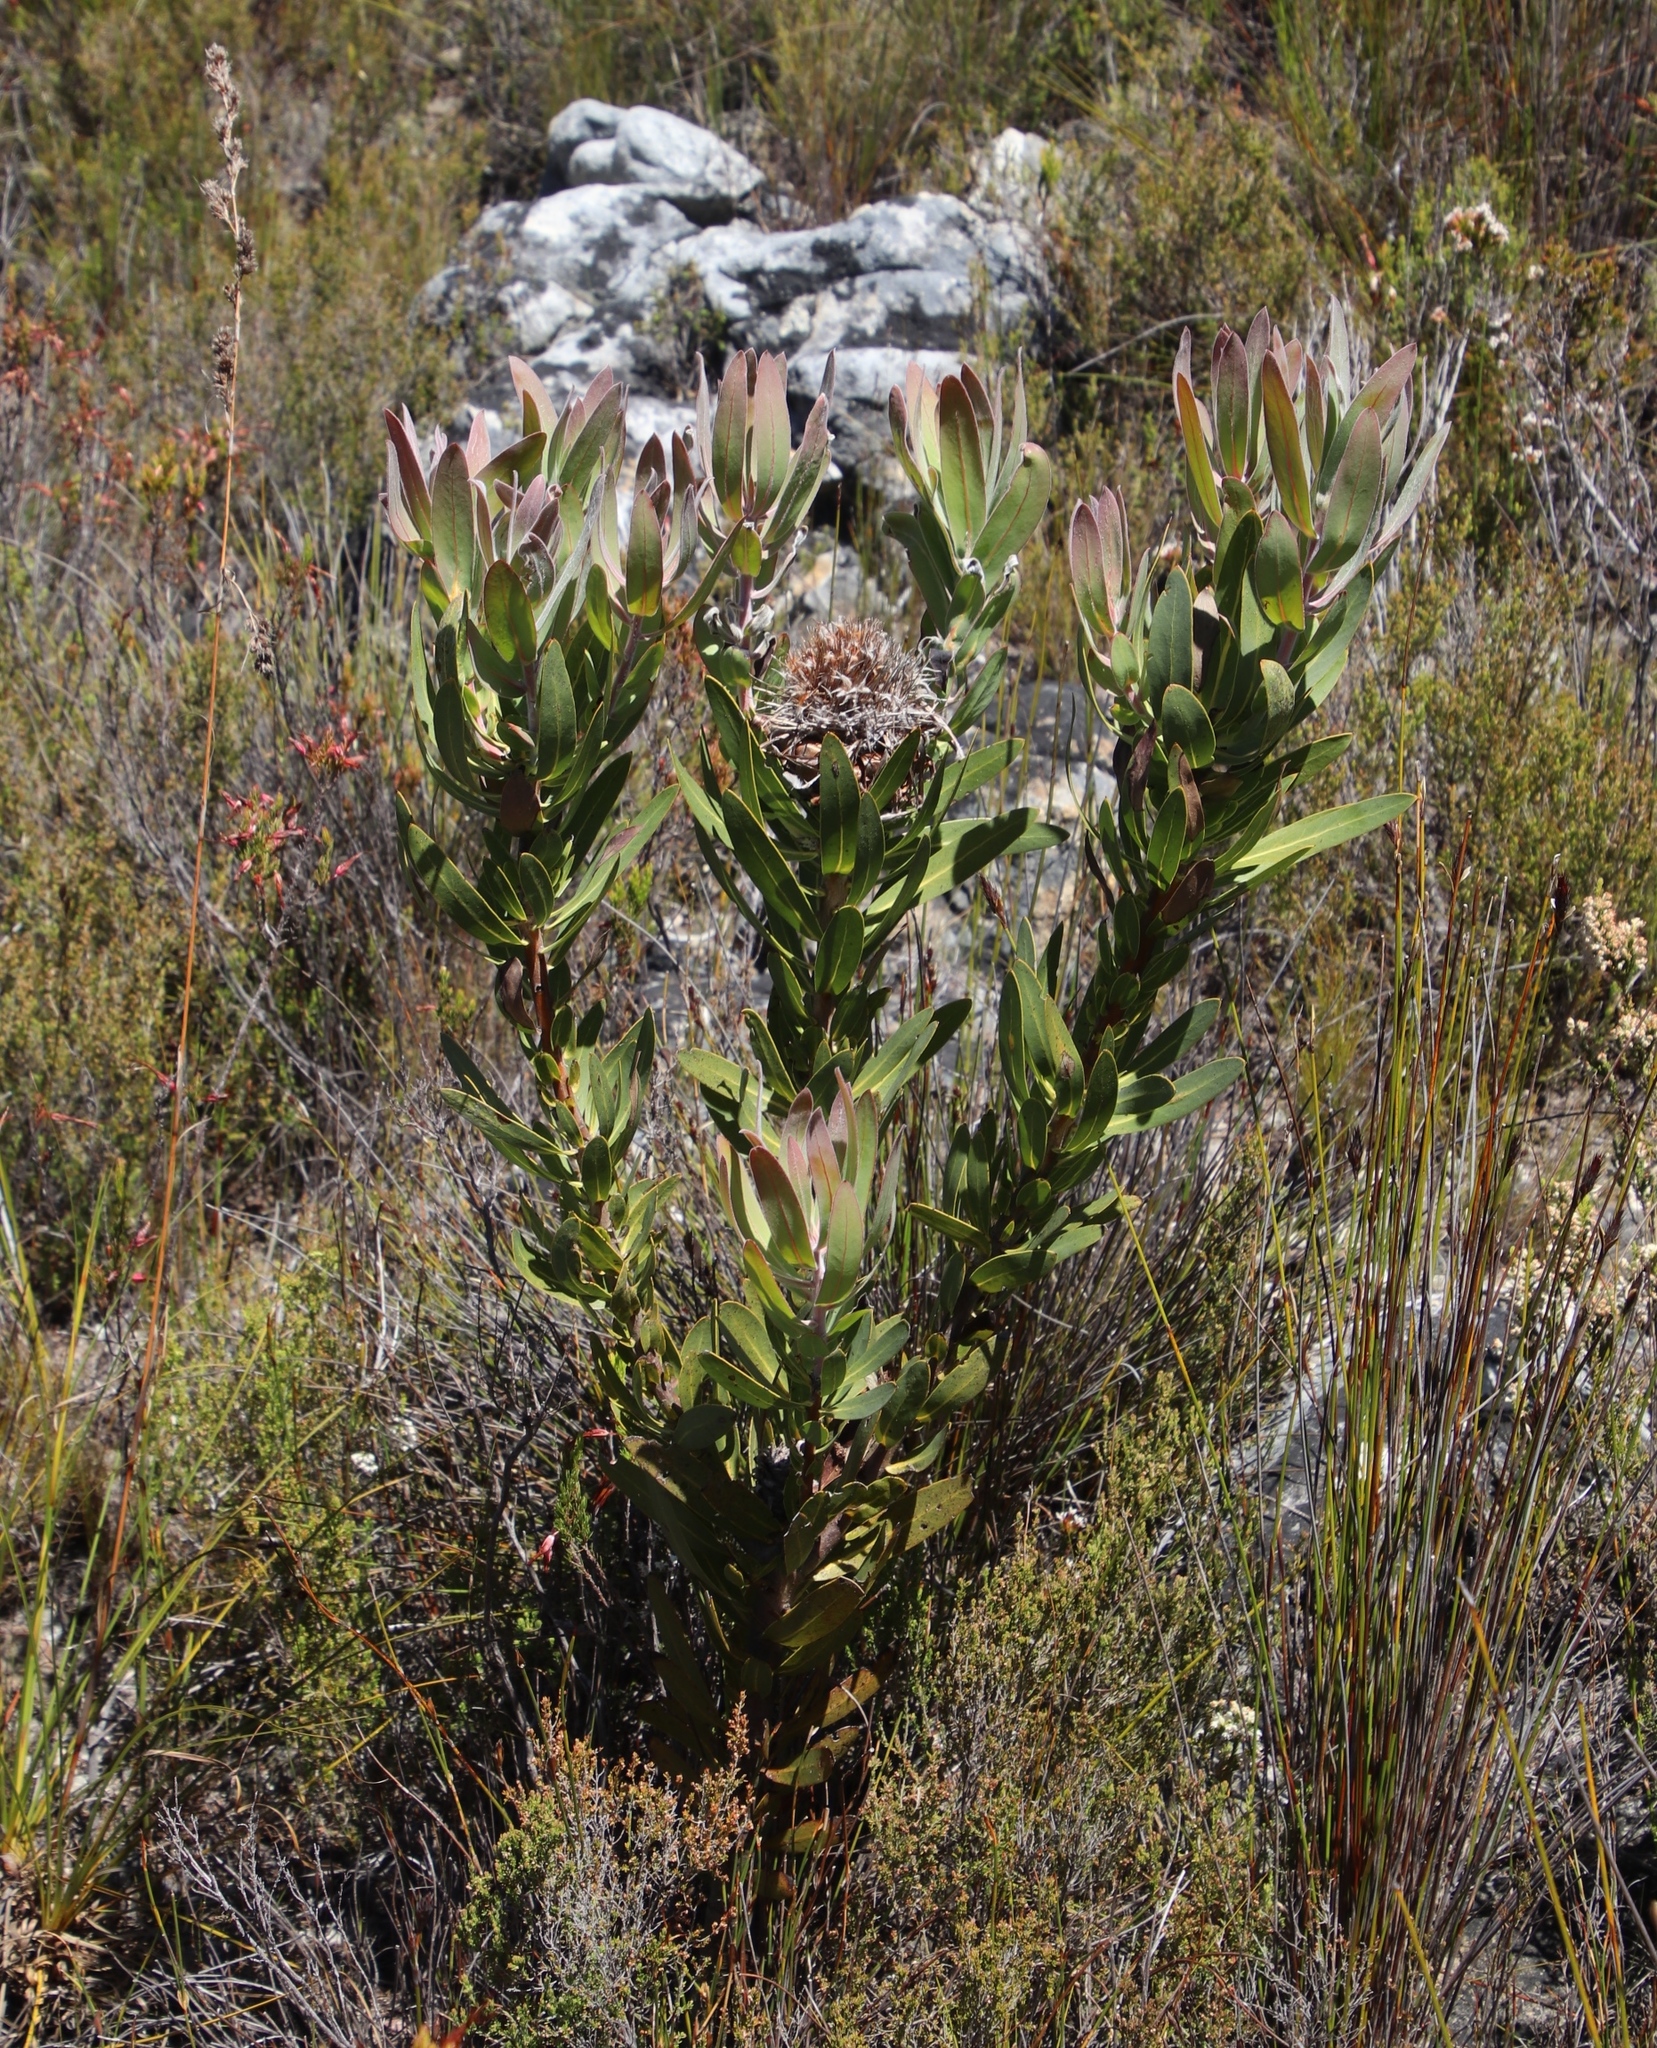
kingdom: Plantae
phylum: Tracheophyta
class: Magnoliopsida
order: Proteales
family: Proteaceae
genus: Protea
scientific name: Protea laurifolia
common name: Grey-leaf sugarbsh
